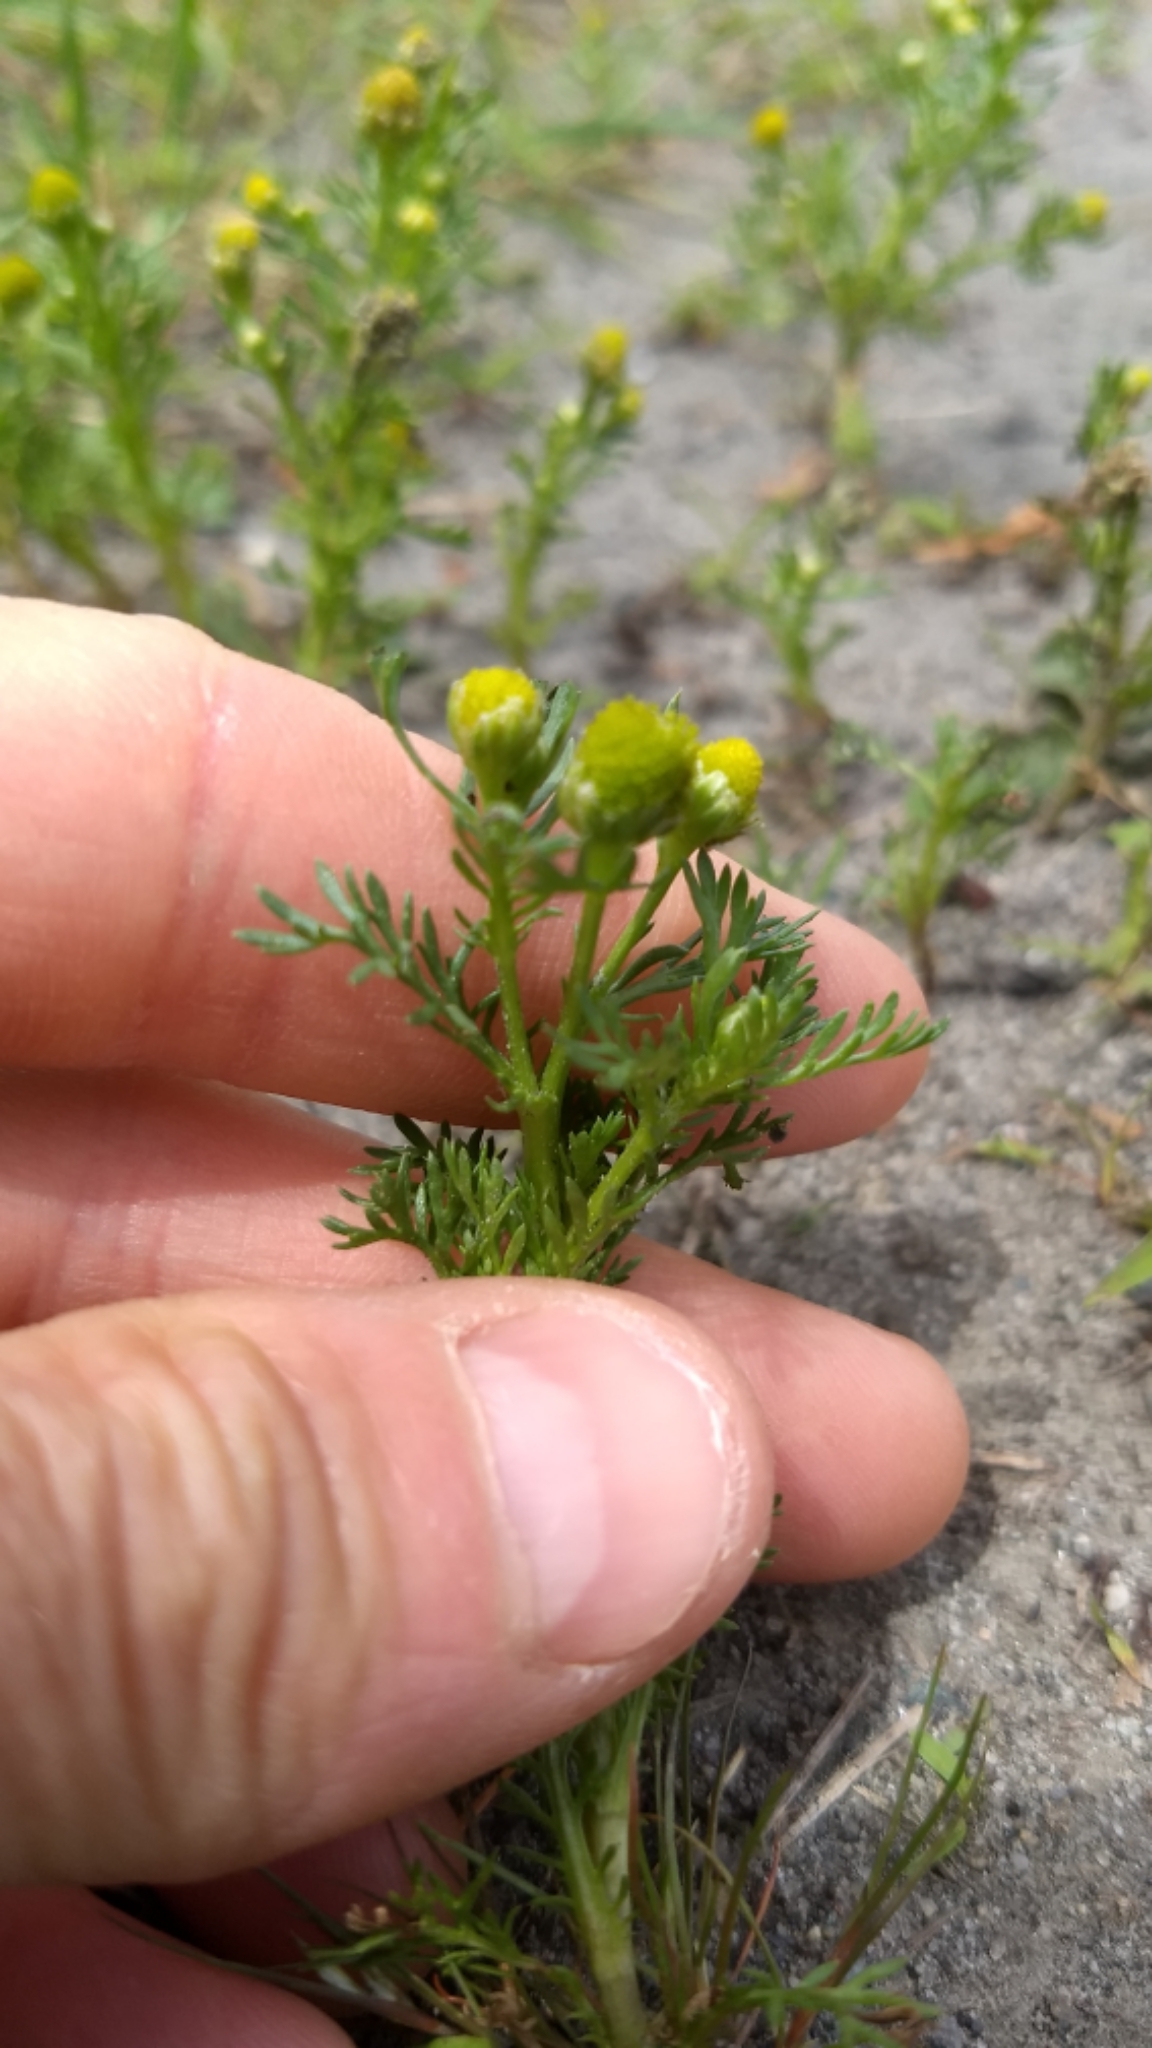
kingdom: Plantae
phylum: Tracheophyta
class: Magnoliopsida
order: Asterales
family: Asteraceae
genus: Matricaria
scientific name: Matricaria discoidea
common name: Disc mayweed
